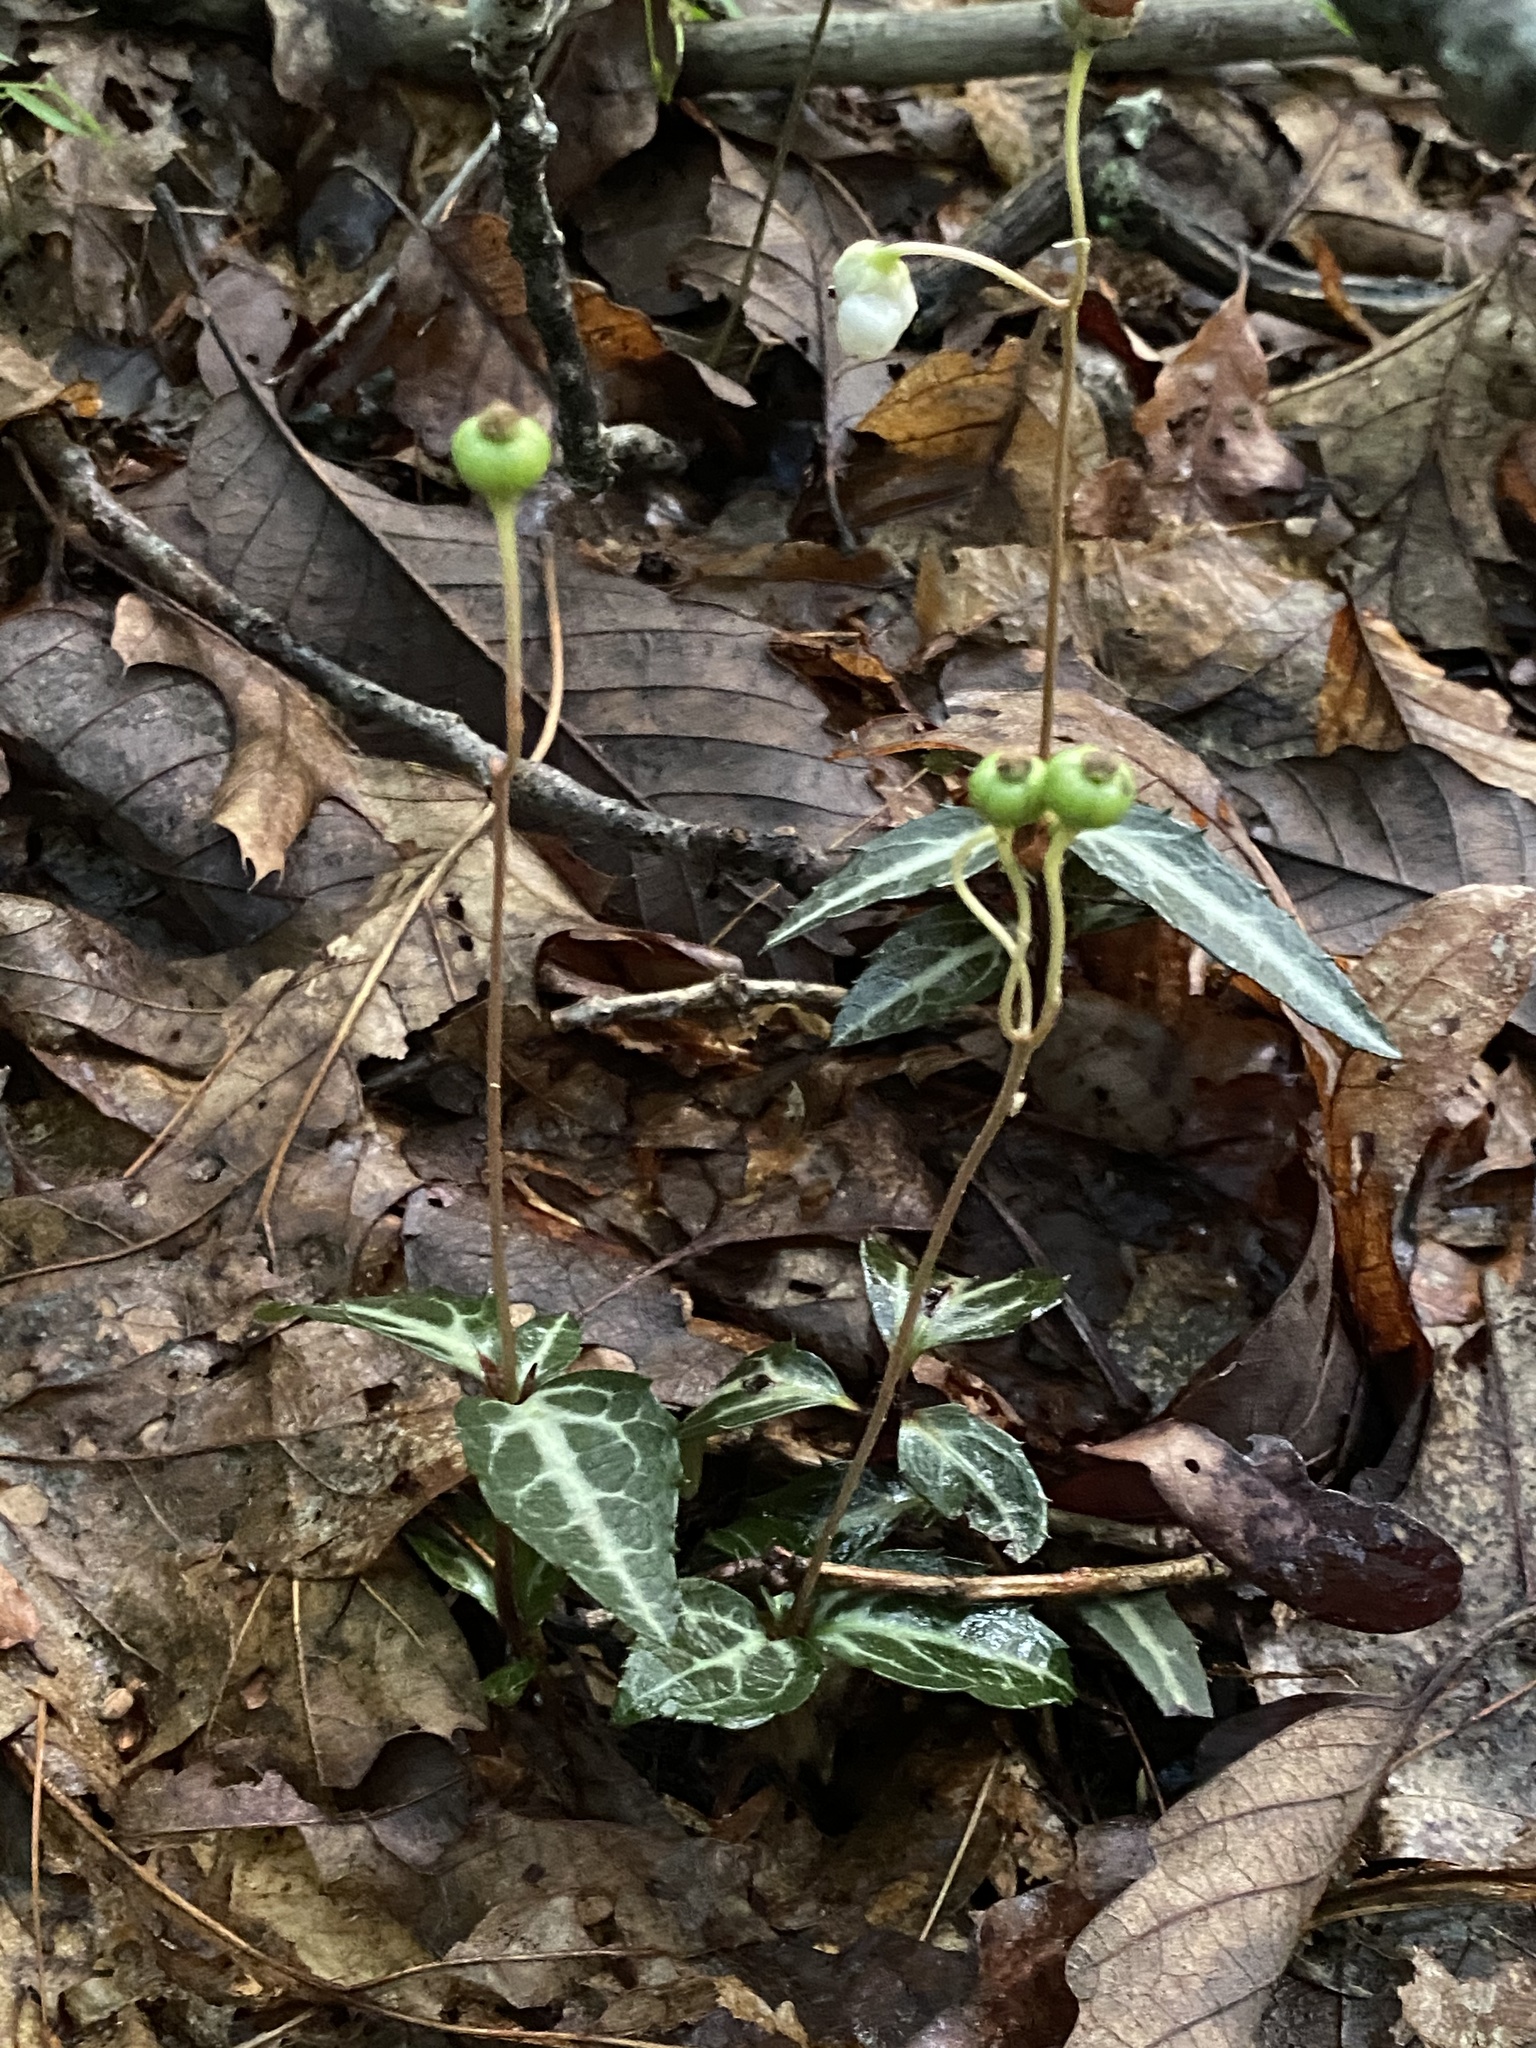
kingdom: Plantae
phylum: Tracheophyta
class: Magnoliopsida
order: Ericales
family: Ericaceae
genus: Chimaphila
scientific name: Chimaphila maculata
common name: Spotted pipsissewa
